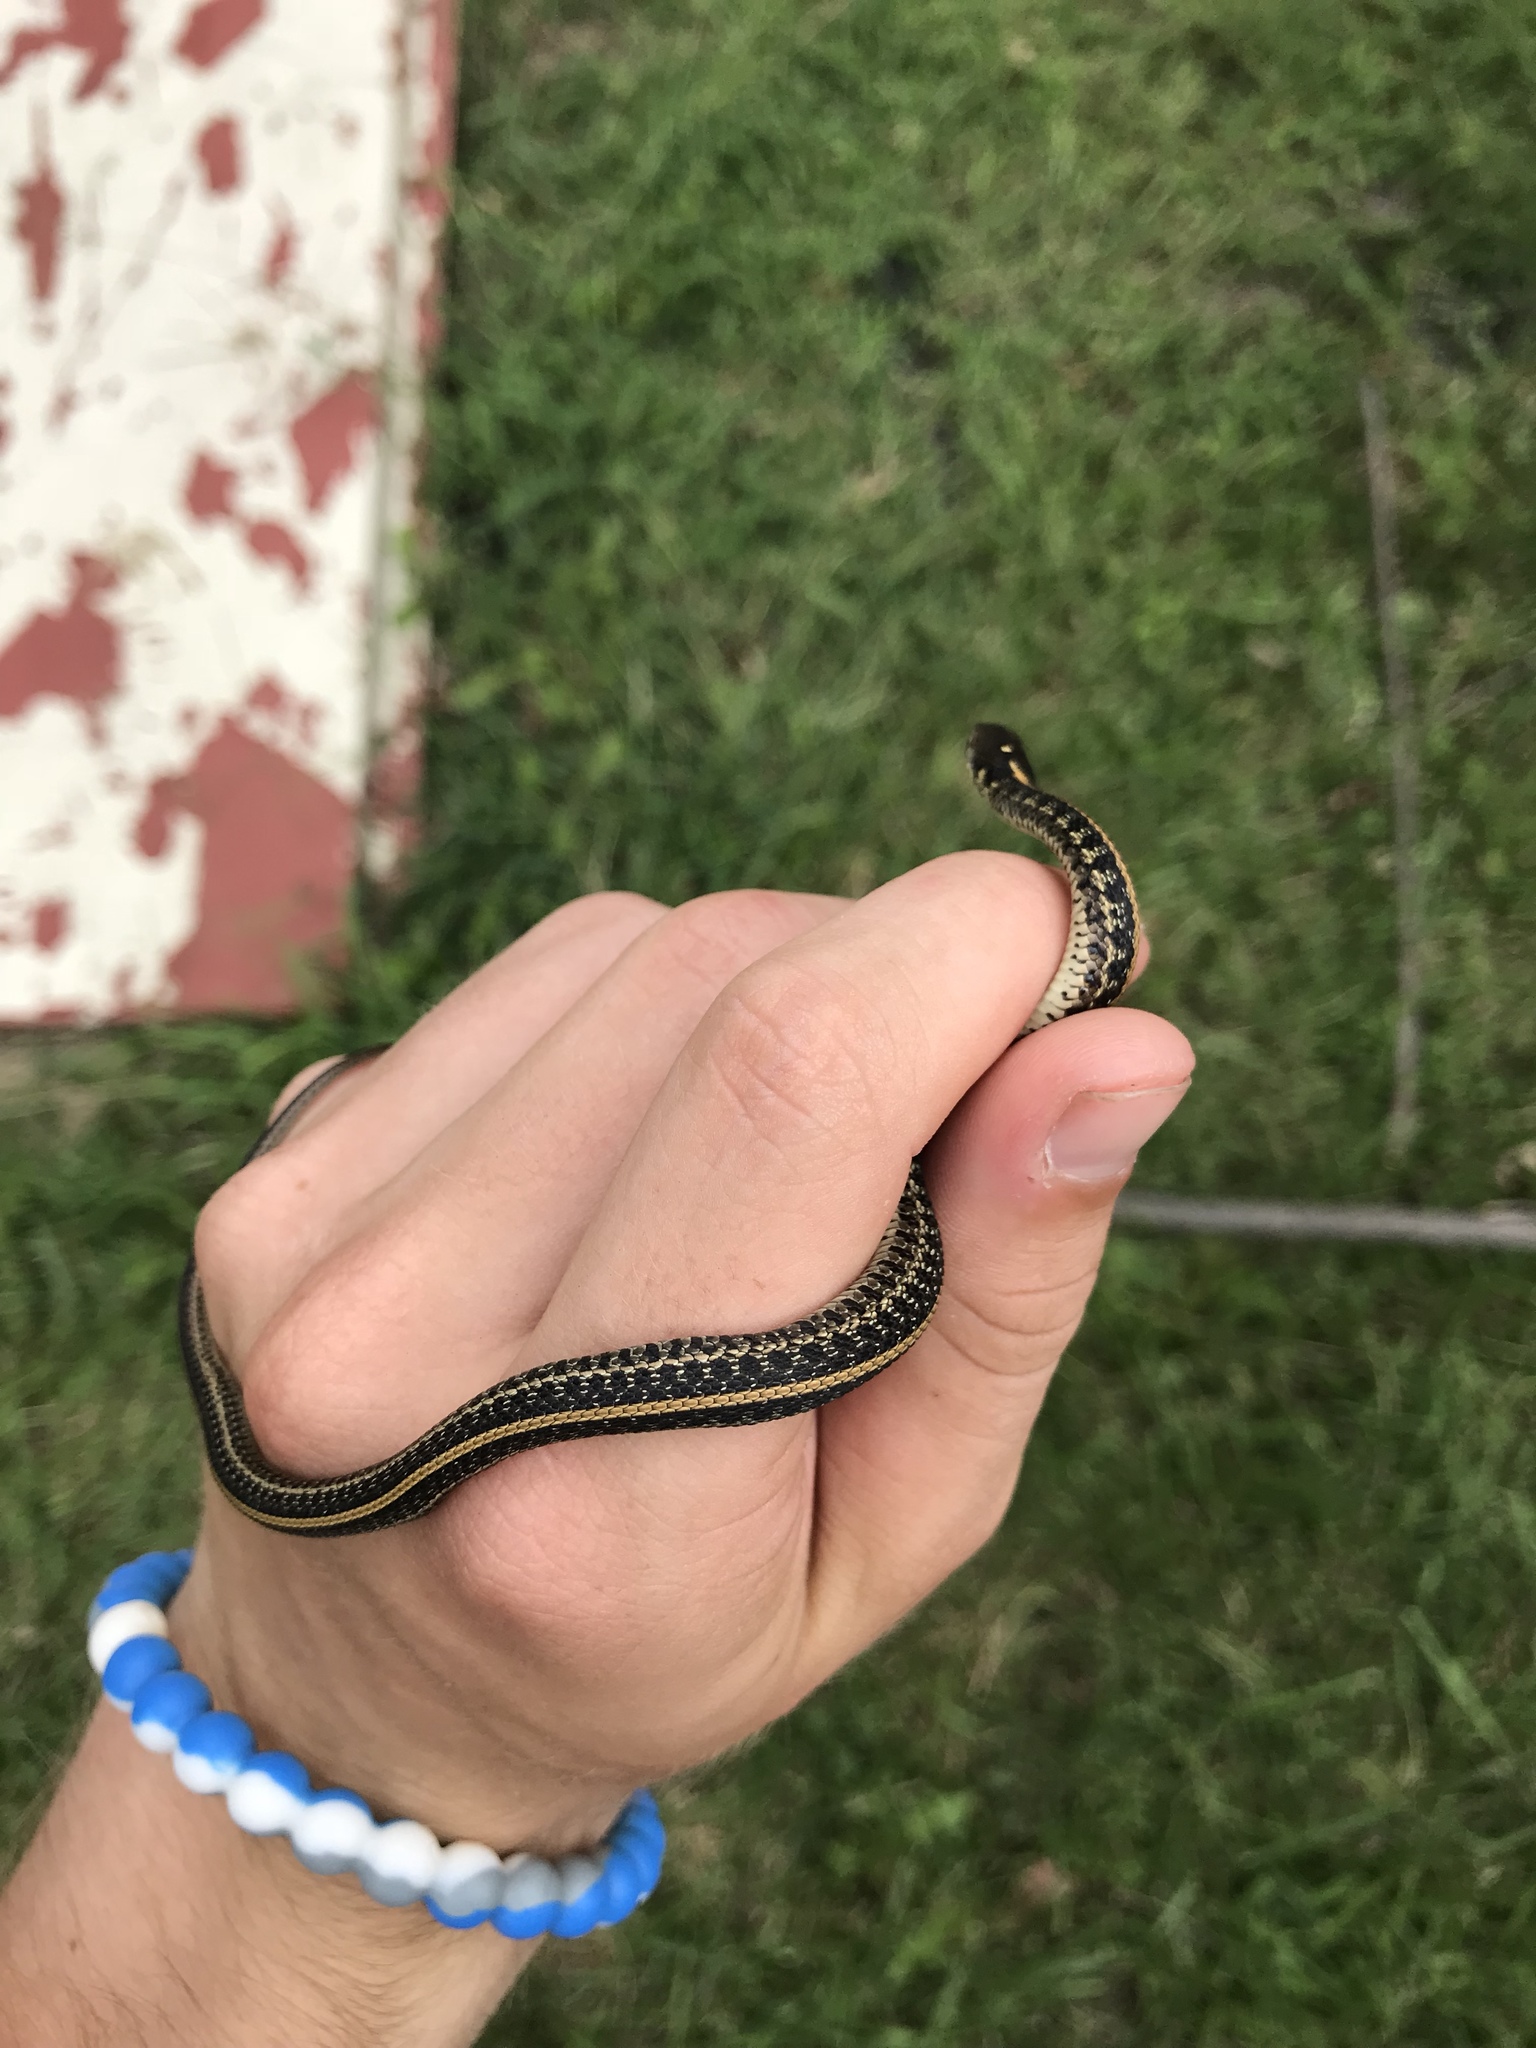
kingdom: Animalia
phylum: Chordata
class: Squamata
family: Colubridae
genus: Thamnophis
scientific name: Thamnophis radix
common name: Plains garter snake
